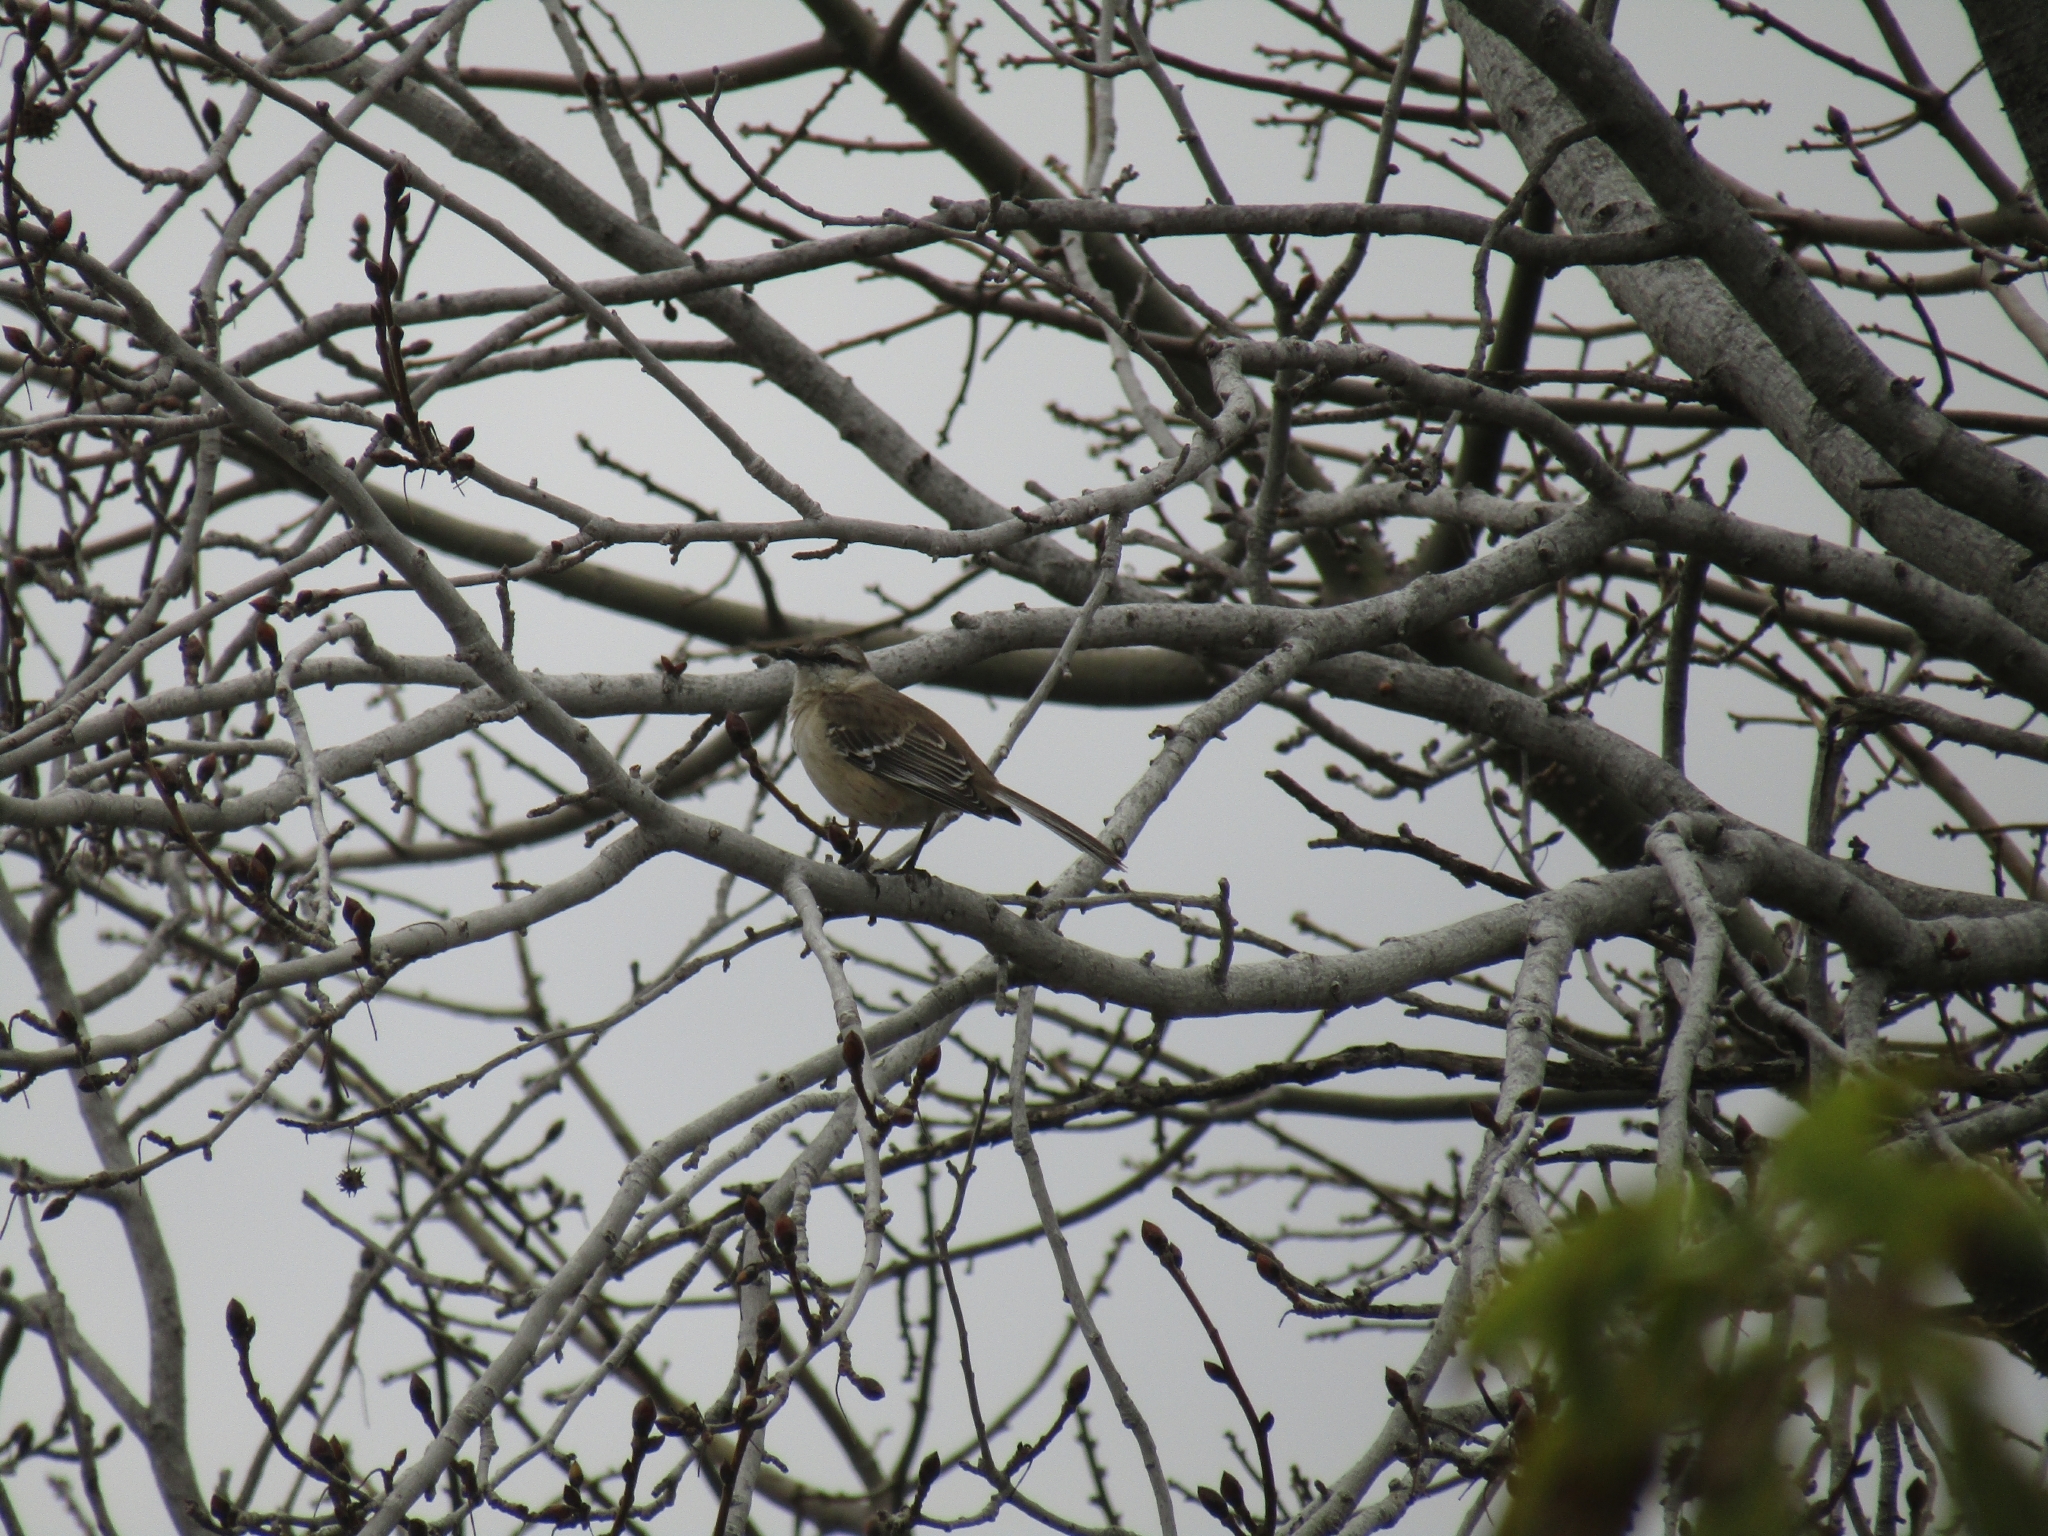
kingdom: Animalia
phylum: Chordata
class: Aves
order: Passeriformes
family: Mimidae
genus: Mimus
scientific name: Mimus saturninus
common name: Chalk-browed mockingbird
